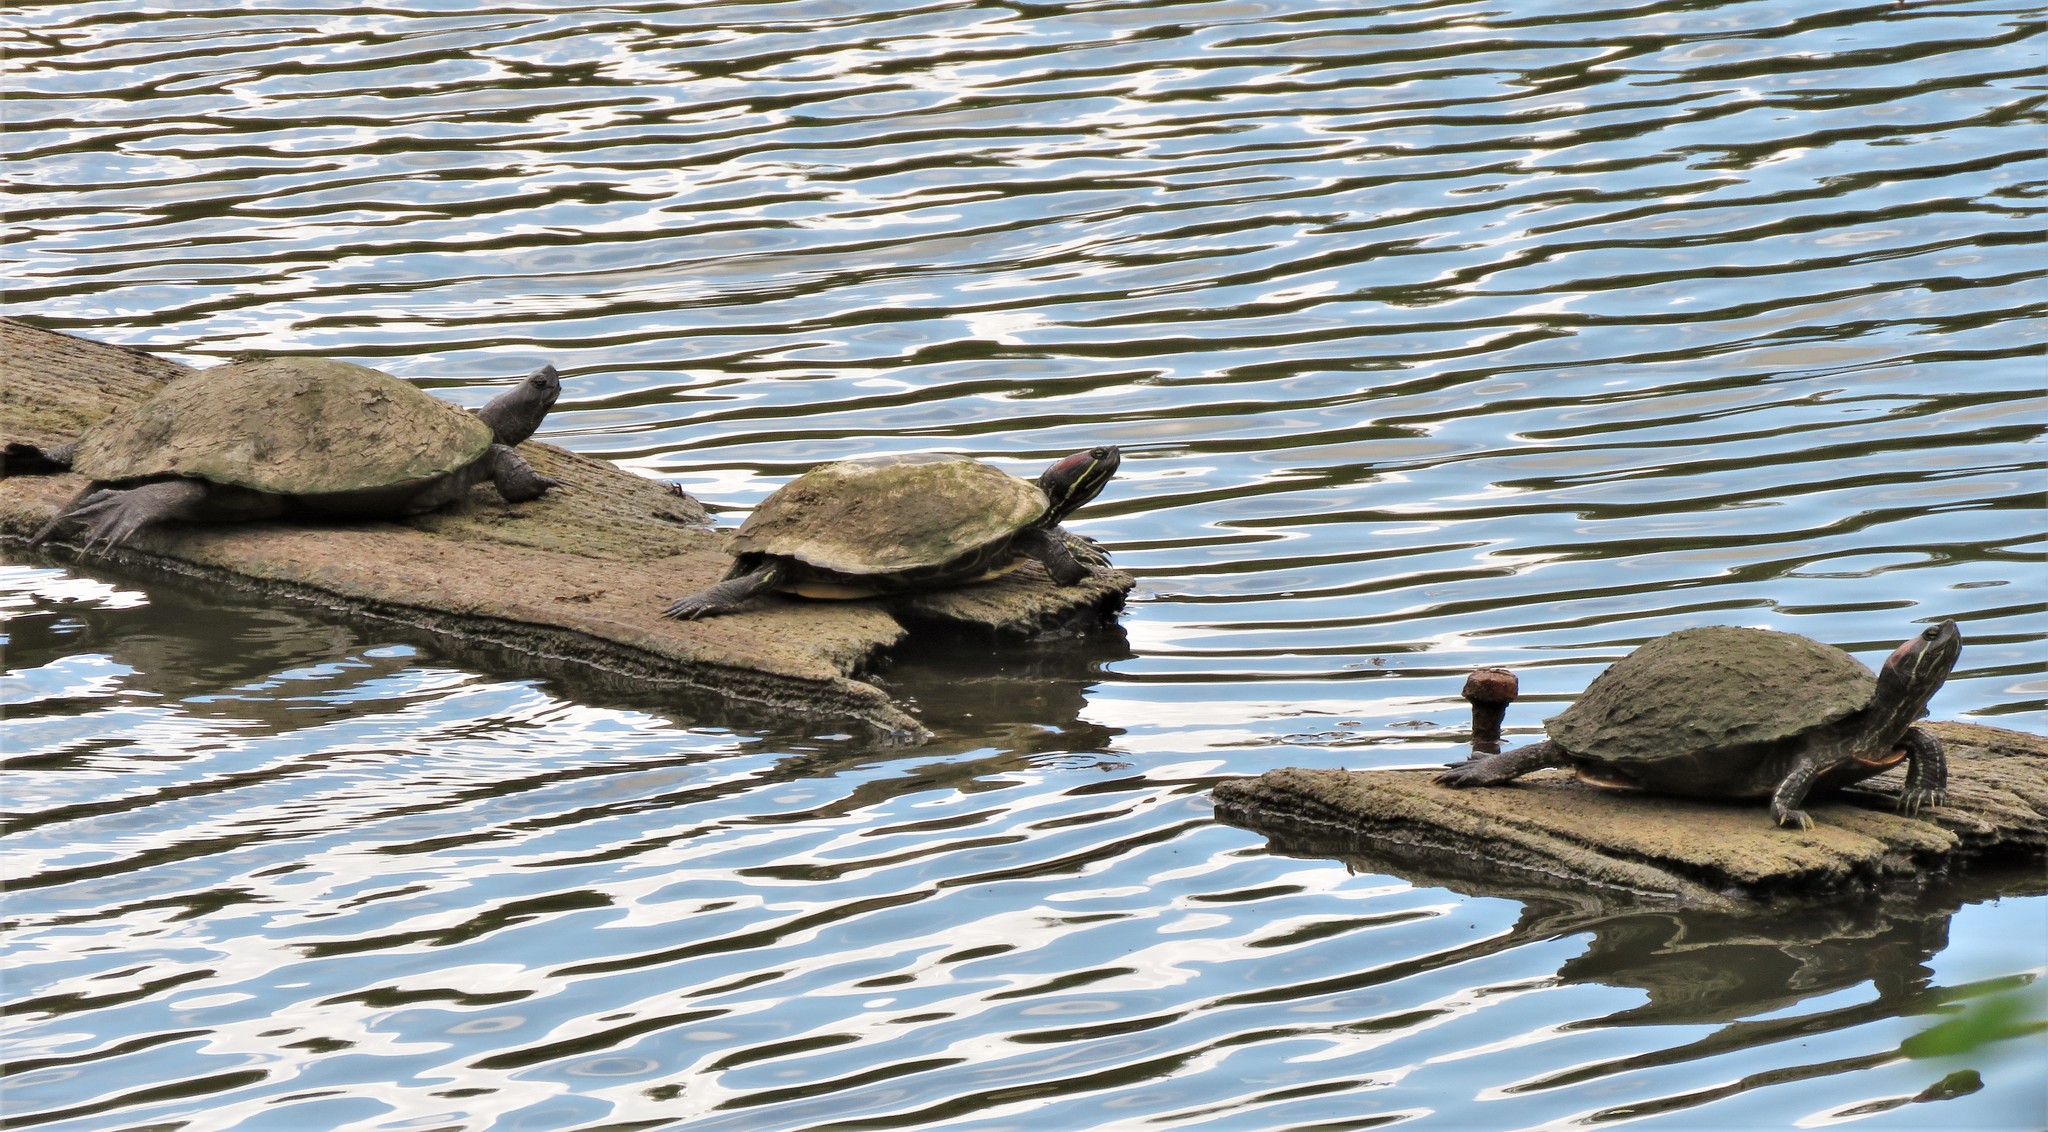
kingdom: Animalia
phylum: Chordata
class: Testudines
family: Emydidae
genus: Trachemys
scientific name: Trachemys scripta
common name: Slider
